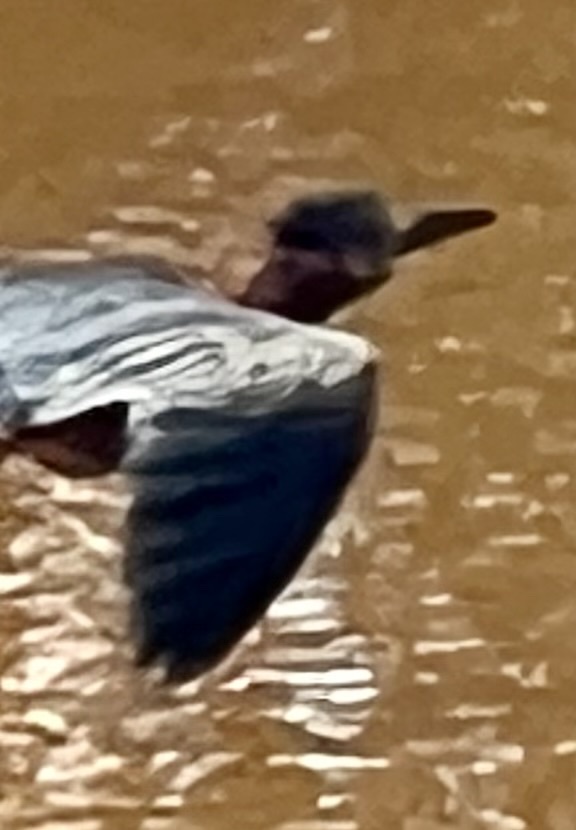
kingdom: Animalia
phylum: Chordata
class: Aves
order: Pelecaniformes
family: Ardeidae
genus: Butorides
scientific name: Butorides virescens
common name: Green heron
